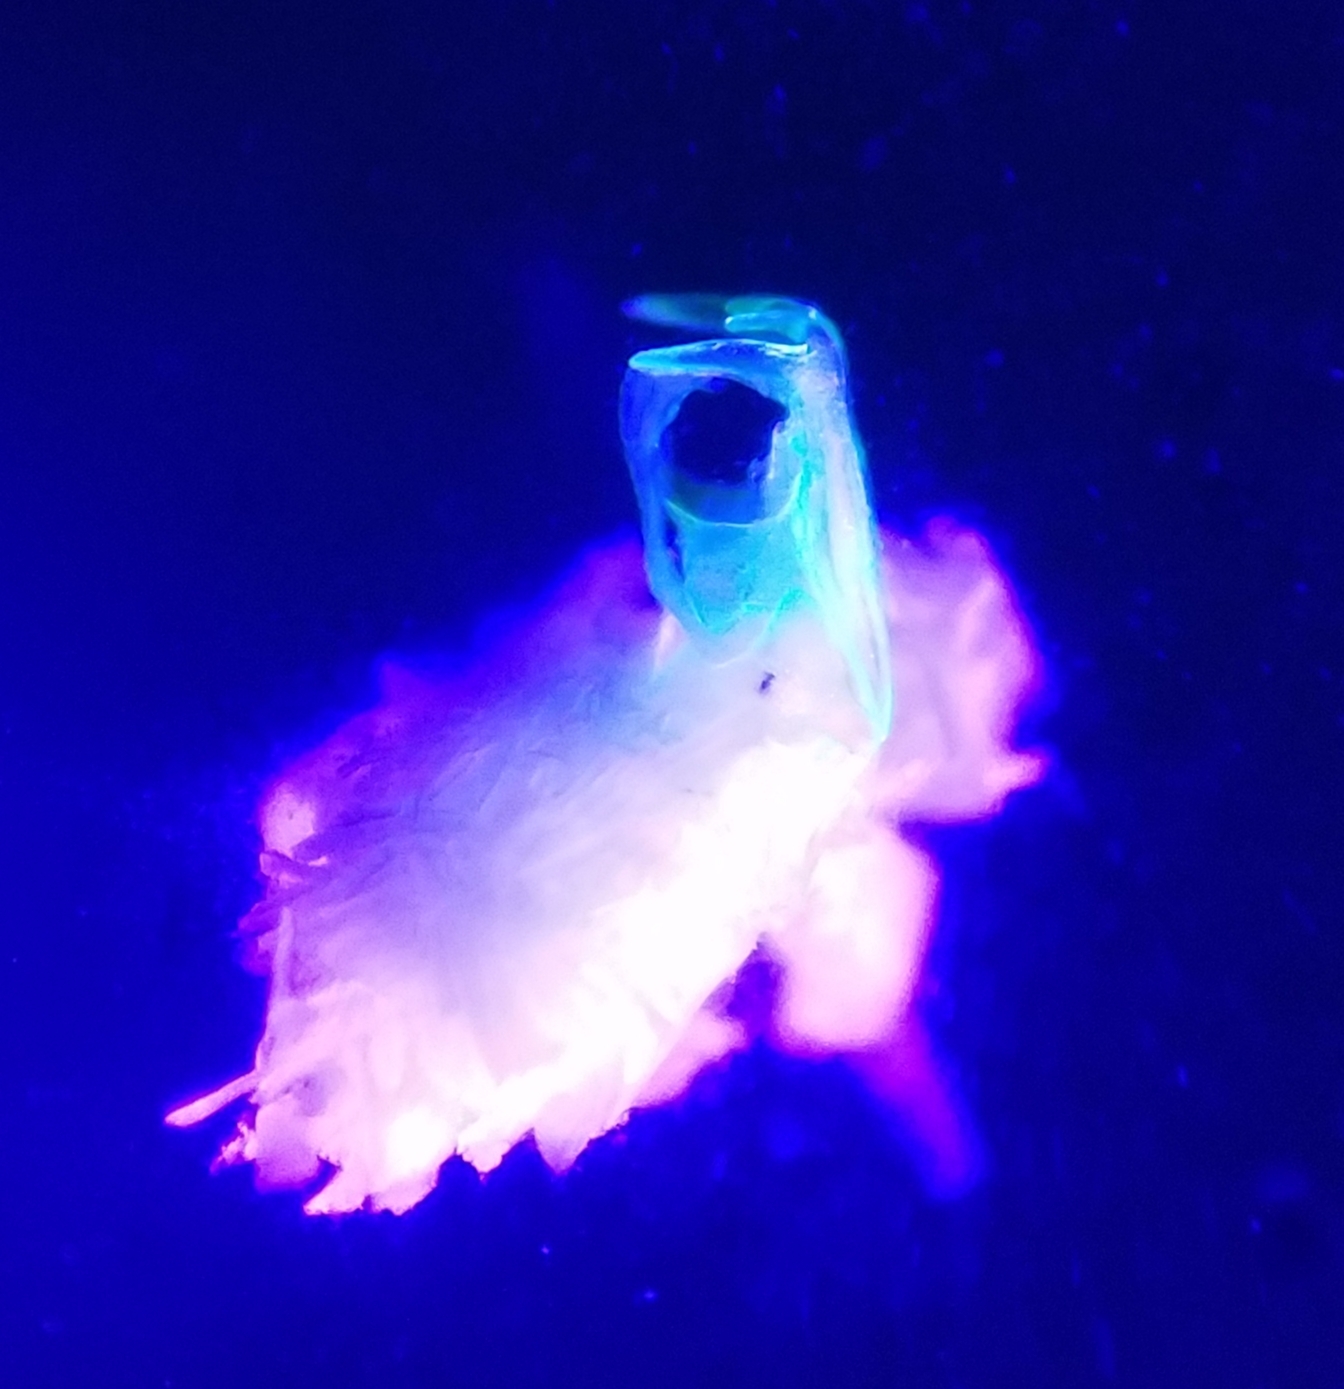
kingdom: Animalia
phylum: Arthropoda
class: Diplopoda
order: Chordeumatida
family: Cleidogonidae
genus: Cleidogona
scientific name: Cleidogona caesioannulata
